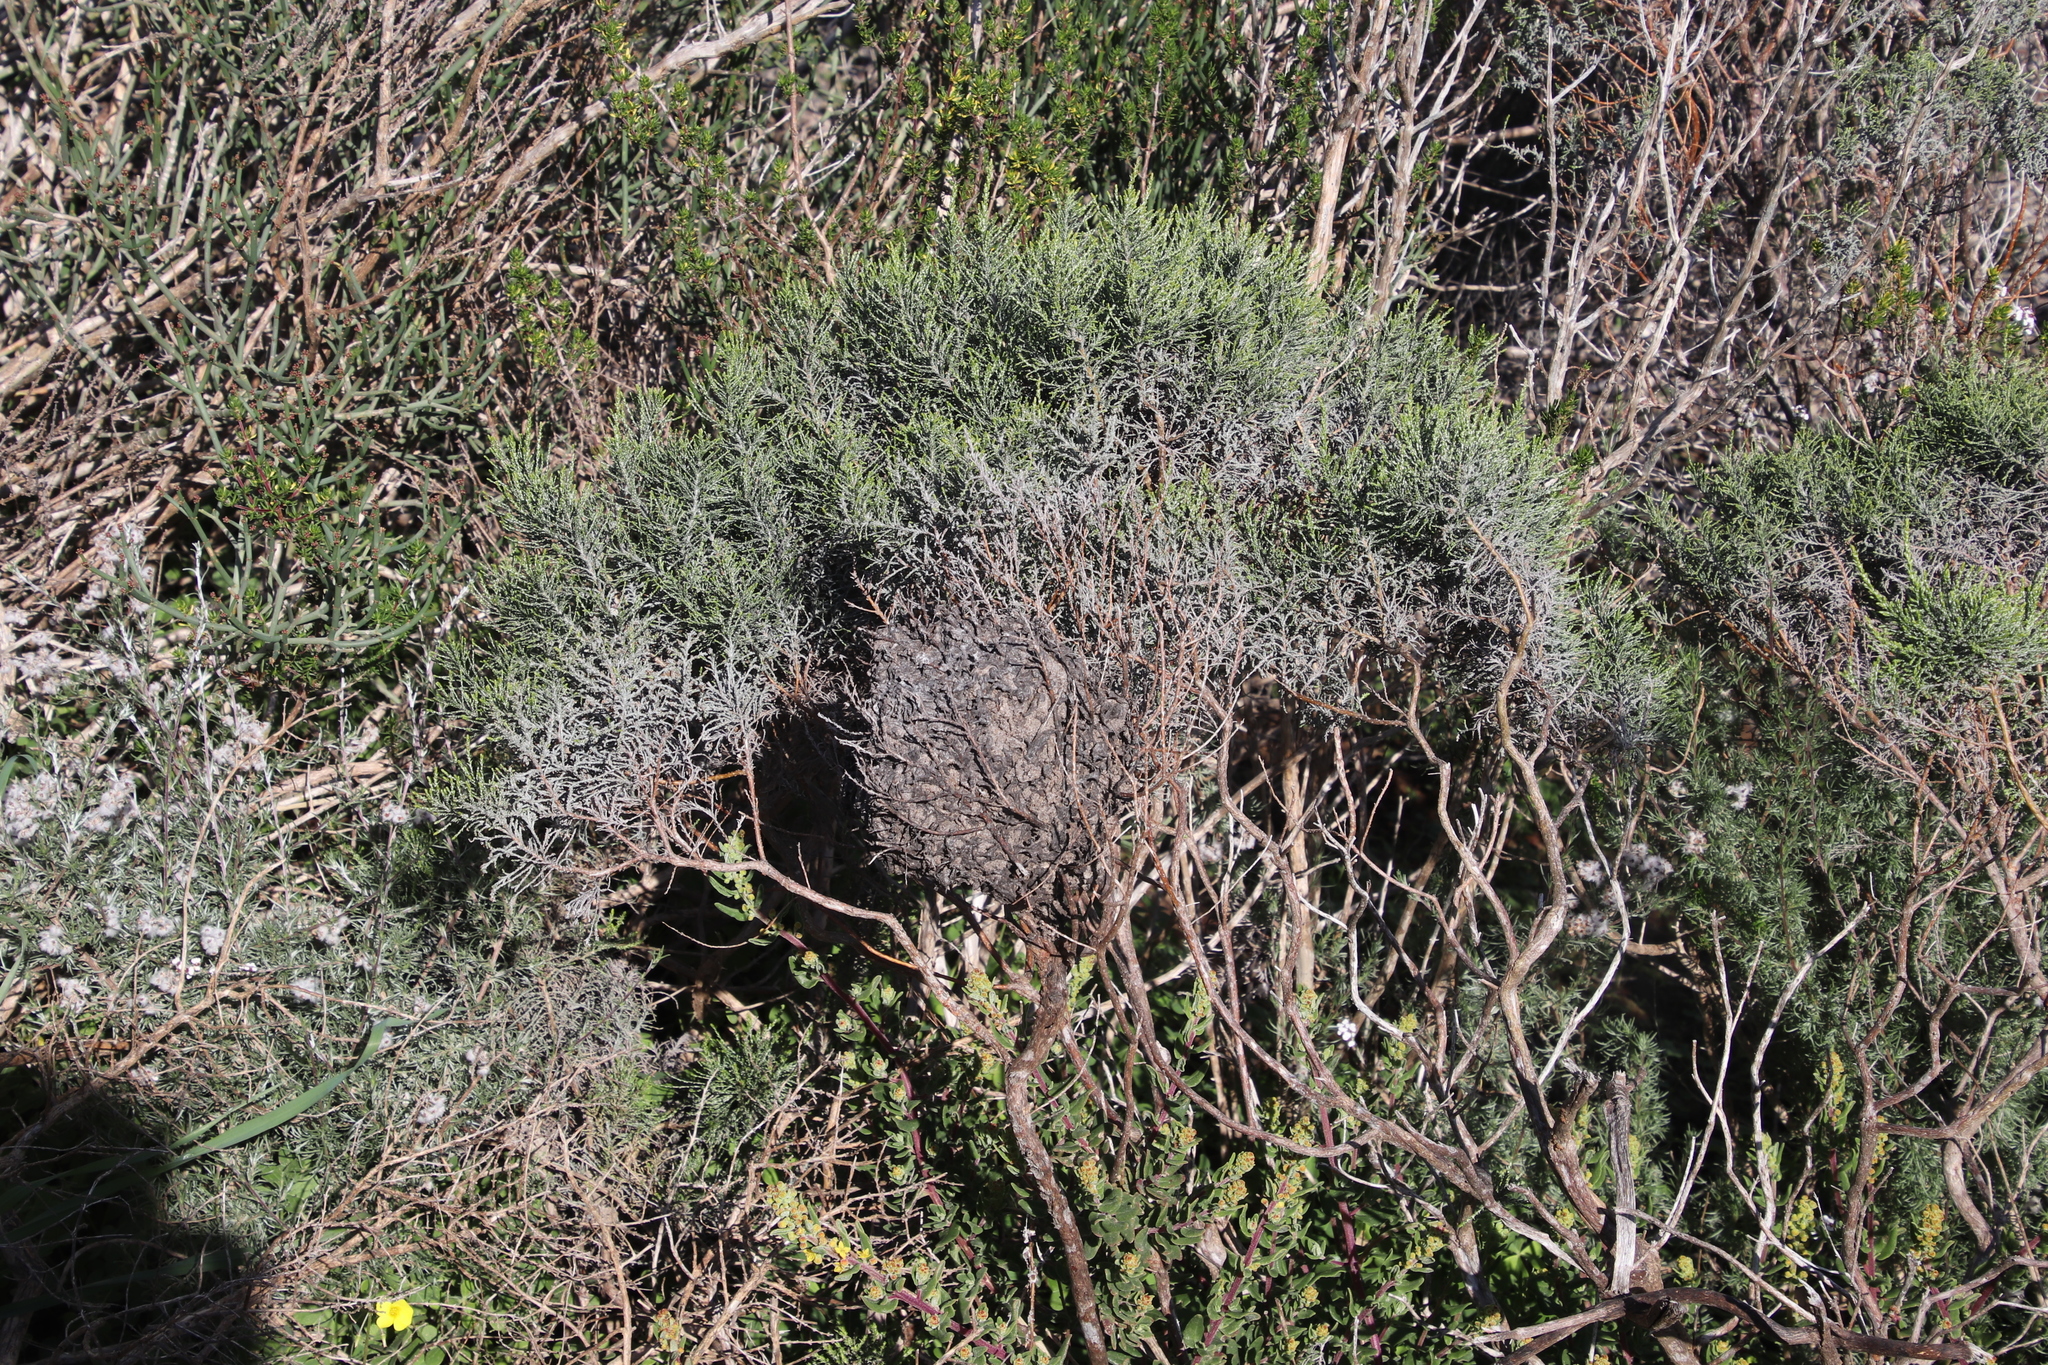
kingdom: Animalia
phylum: Arthropoda
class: Insecta
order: Hymenoptera
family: Formicidae
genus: Crematogaster
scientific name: Crematogaster peringueyi
